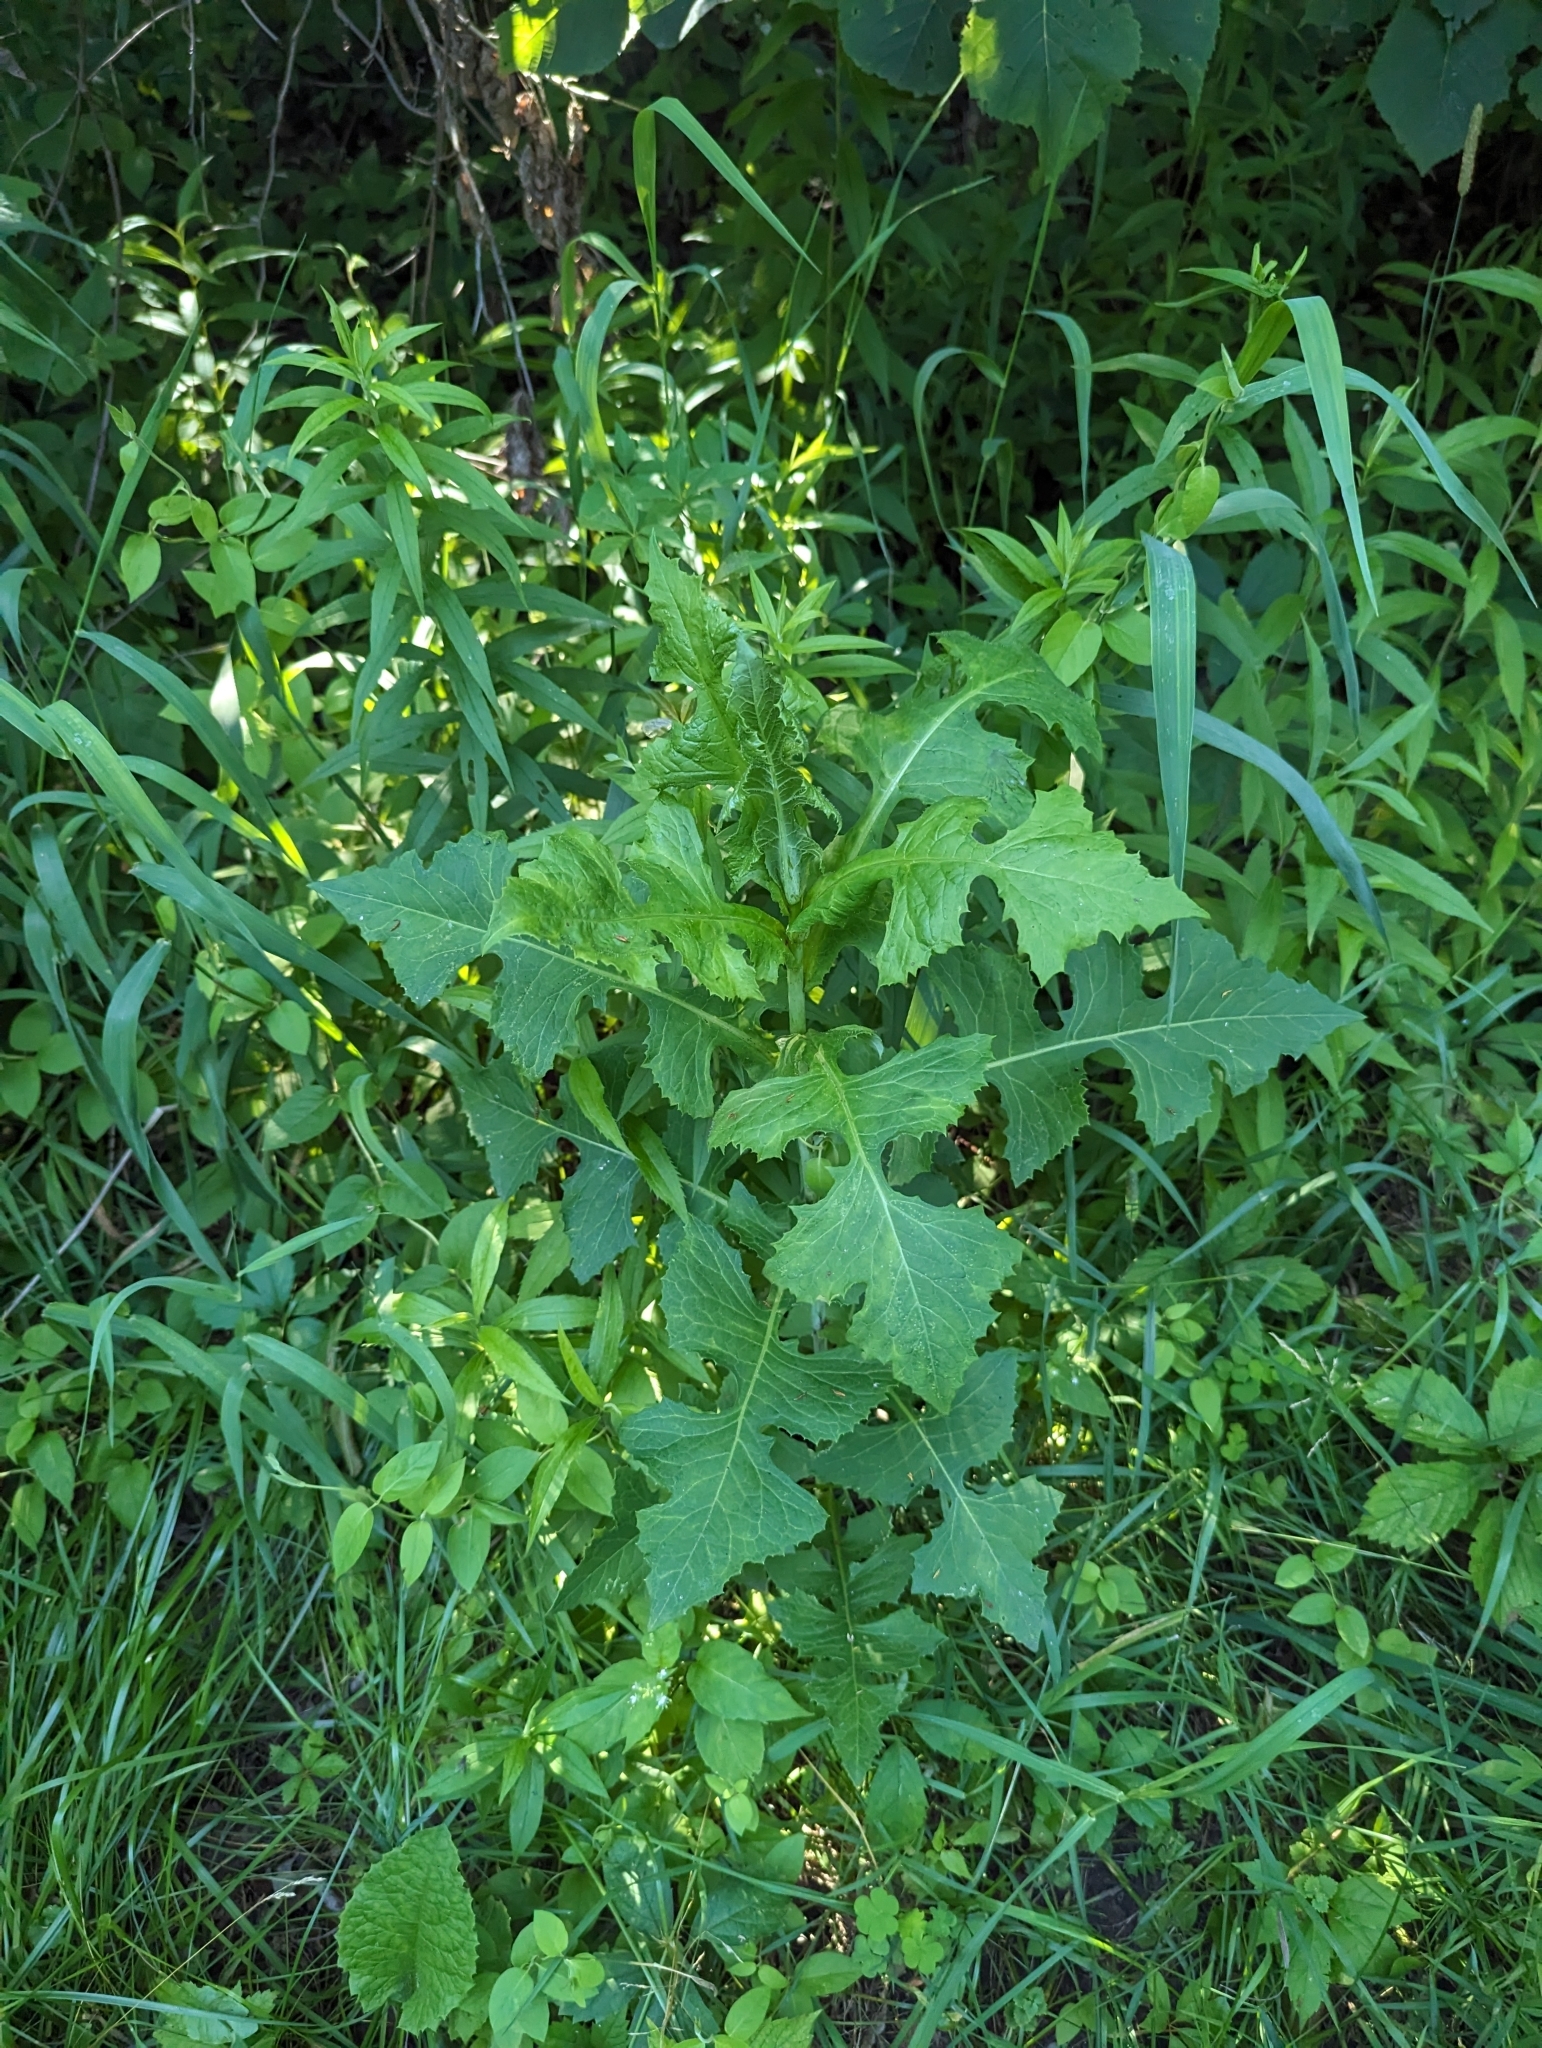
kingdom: Plantae
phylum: Tracheophyta
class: Magnoliopsida
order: Asterales
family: Asteraceae
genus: Lactuca
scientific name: Lactuca biennis
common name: Blue wood lettuce
